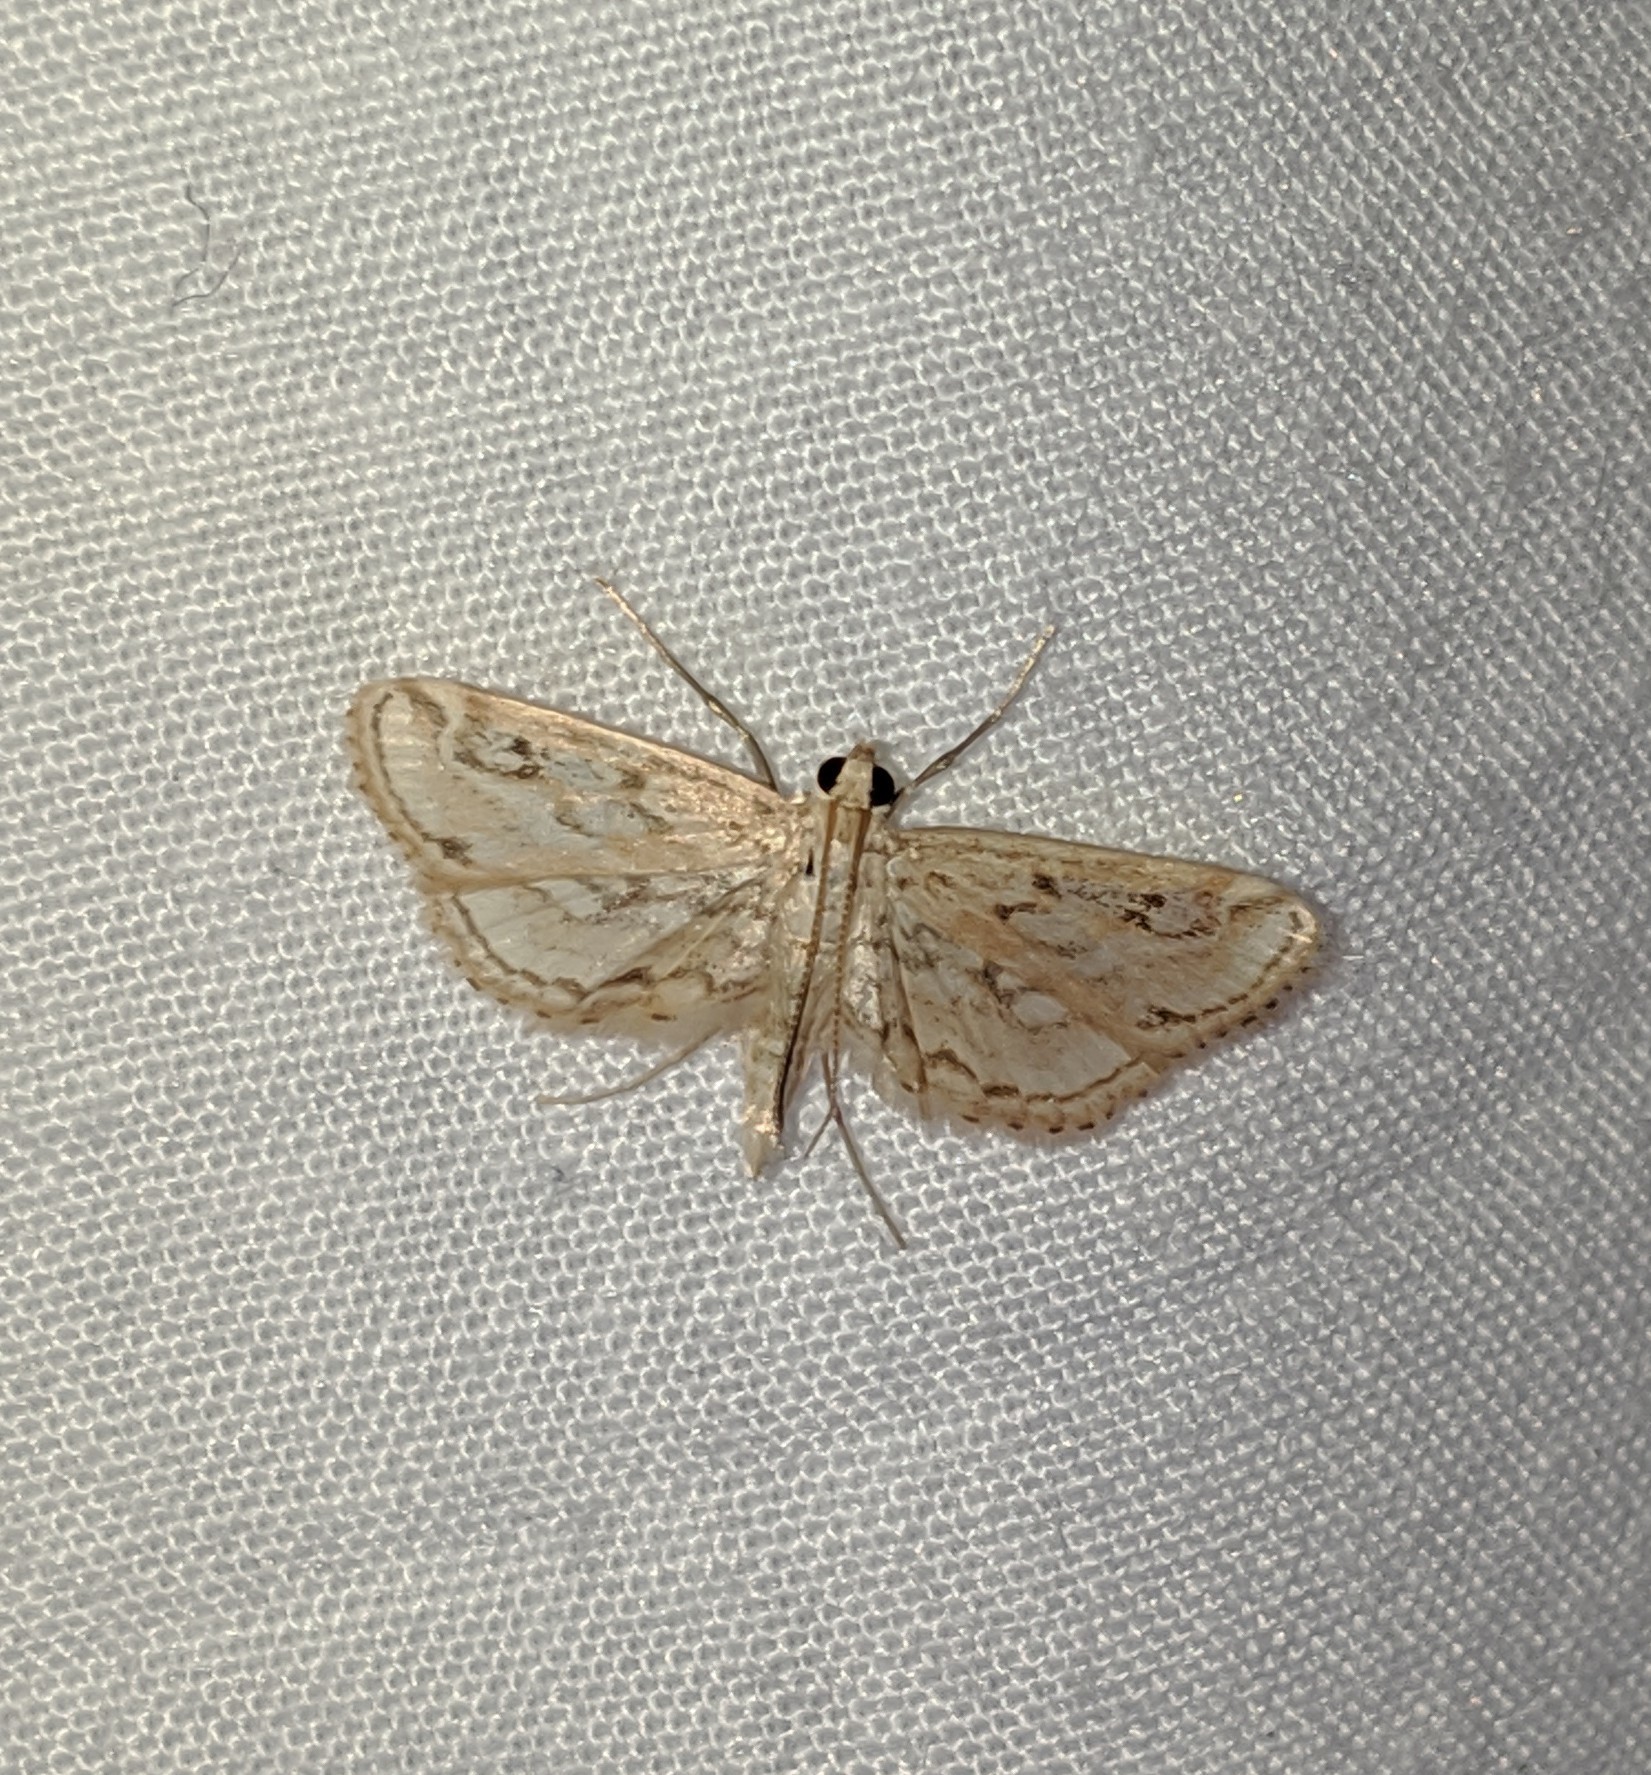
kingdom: Animalia
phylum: Arthropoda
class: Insecta
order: Lepidoptera
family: Crambidae
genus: Parapoynx
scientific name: Parapoynx allionealis
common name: Bladderwort casemaker
